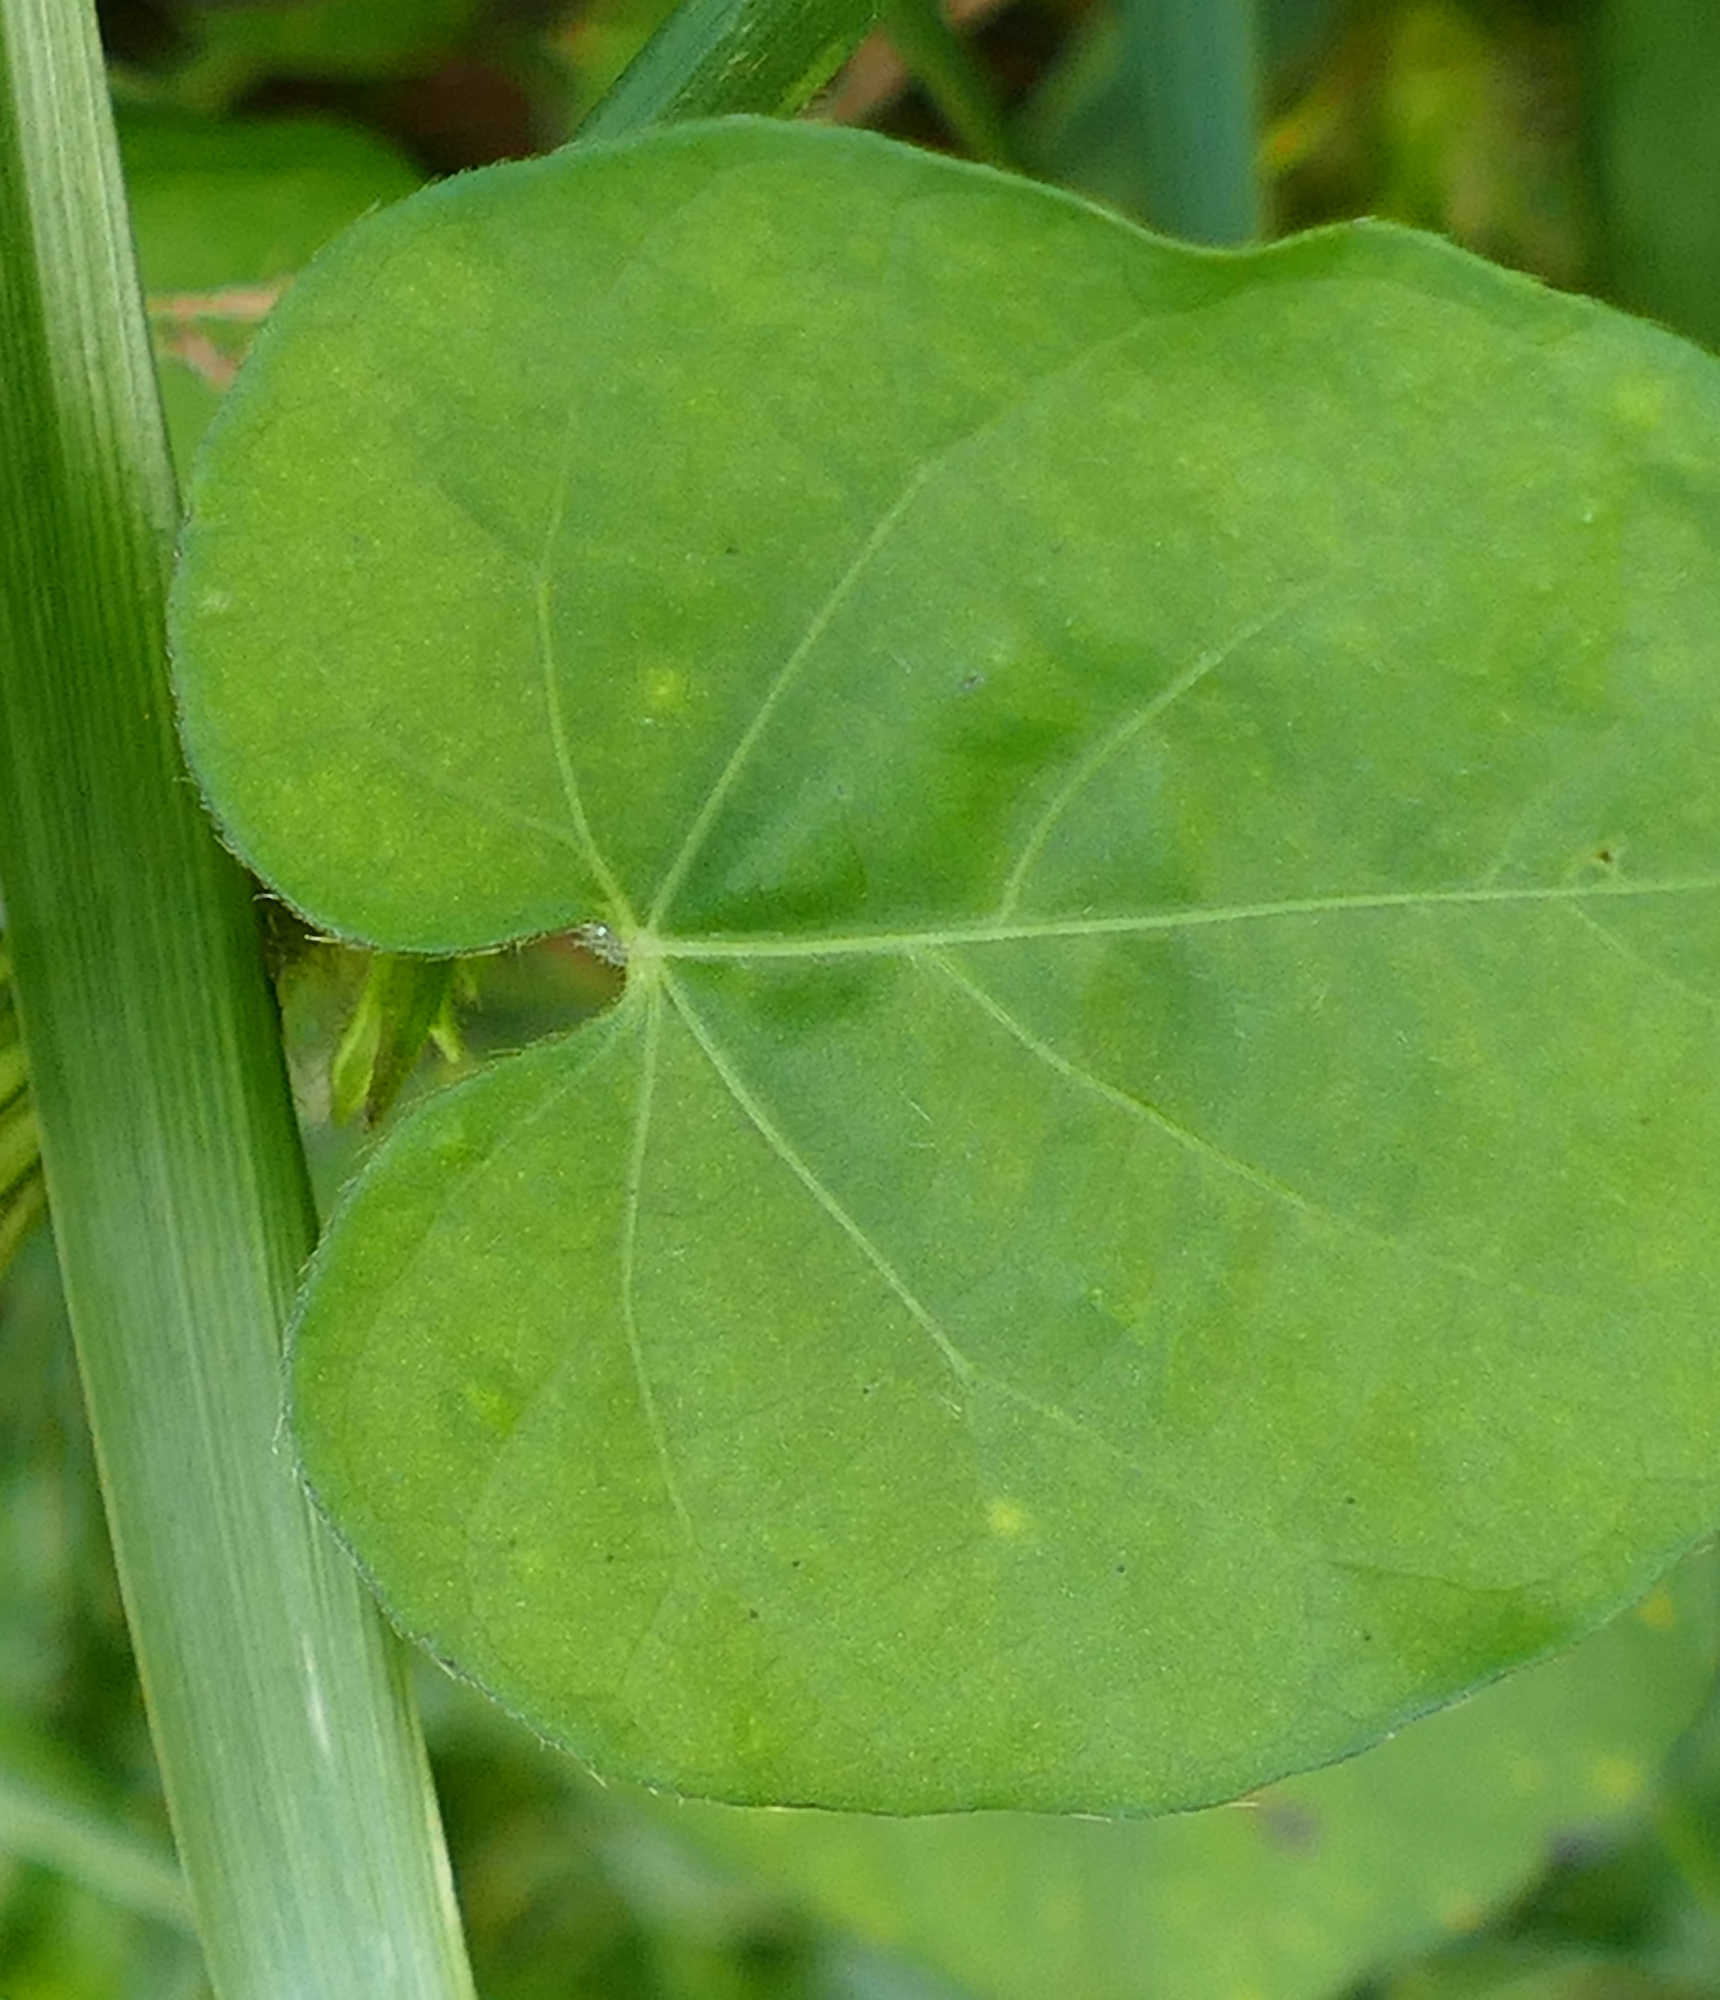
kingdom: Plantae
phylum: Tracheophyta
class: Magnoliopsida
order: Solanales
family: Convolvulaceae
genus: Ipomoea
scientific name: Ipomoea hederacea
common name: Ivy-leaved morning-glory
